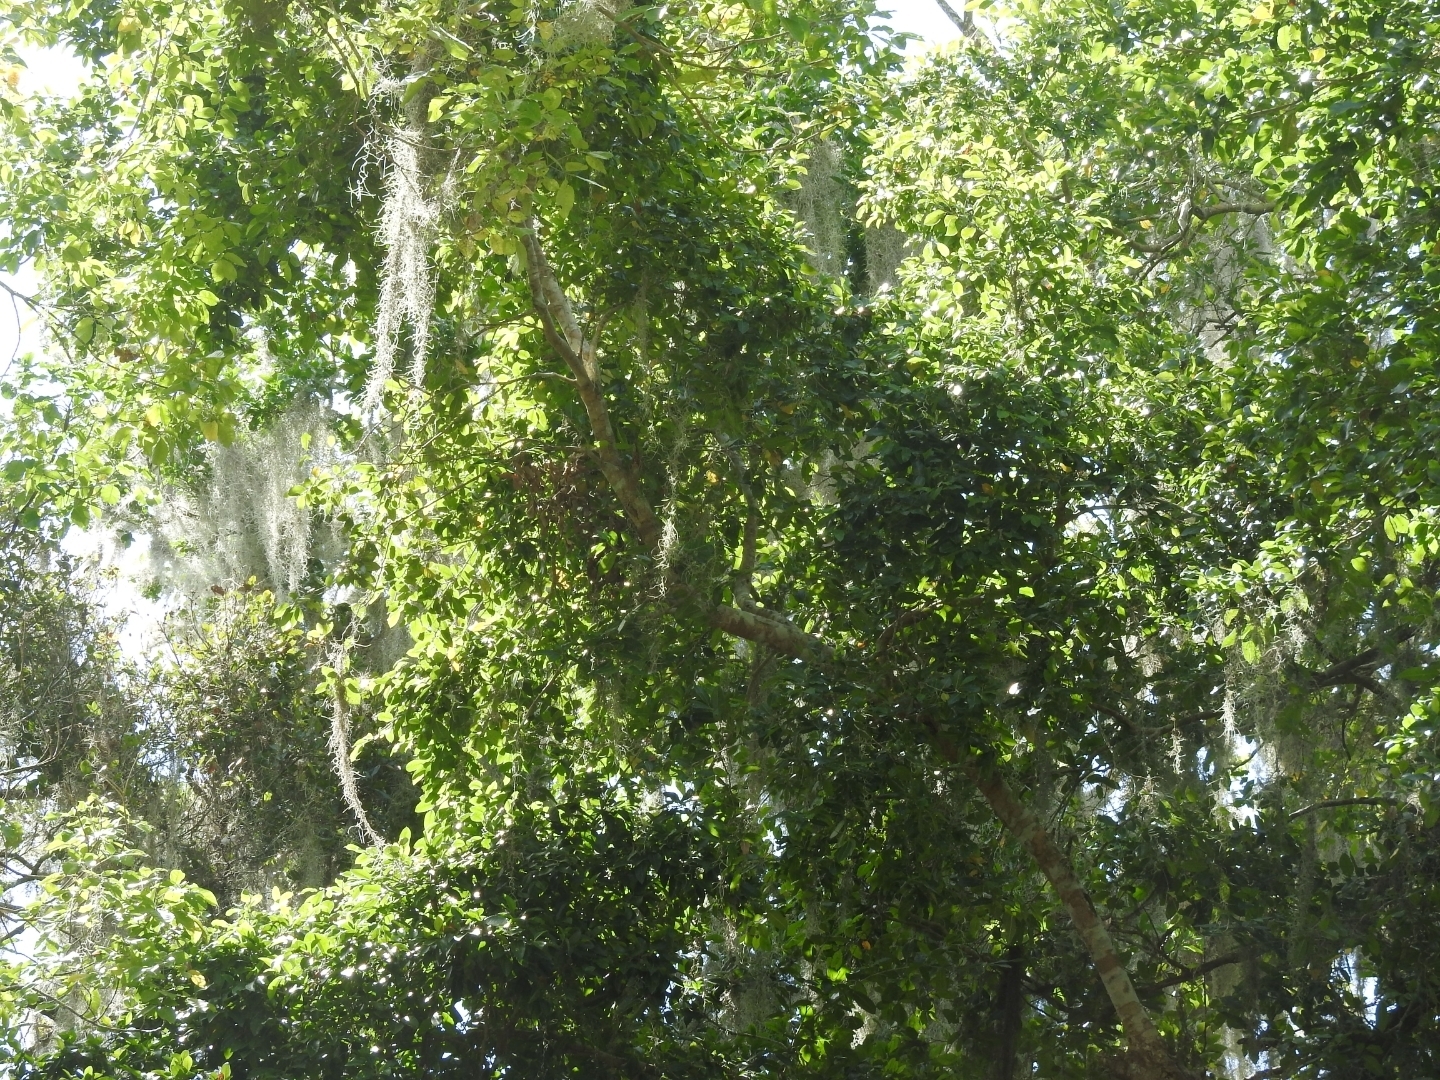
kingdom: Plantae
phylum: Tracheophyta
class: Liliopsida
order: Poales
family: Bromeliaceae
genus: Tillandsia
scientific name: Tillandsia usneoides
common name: Spanish moss
